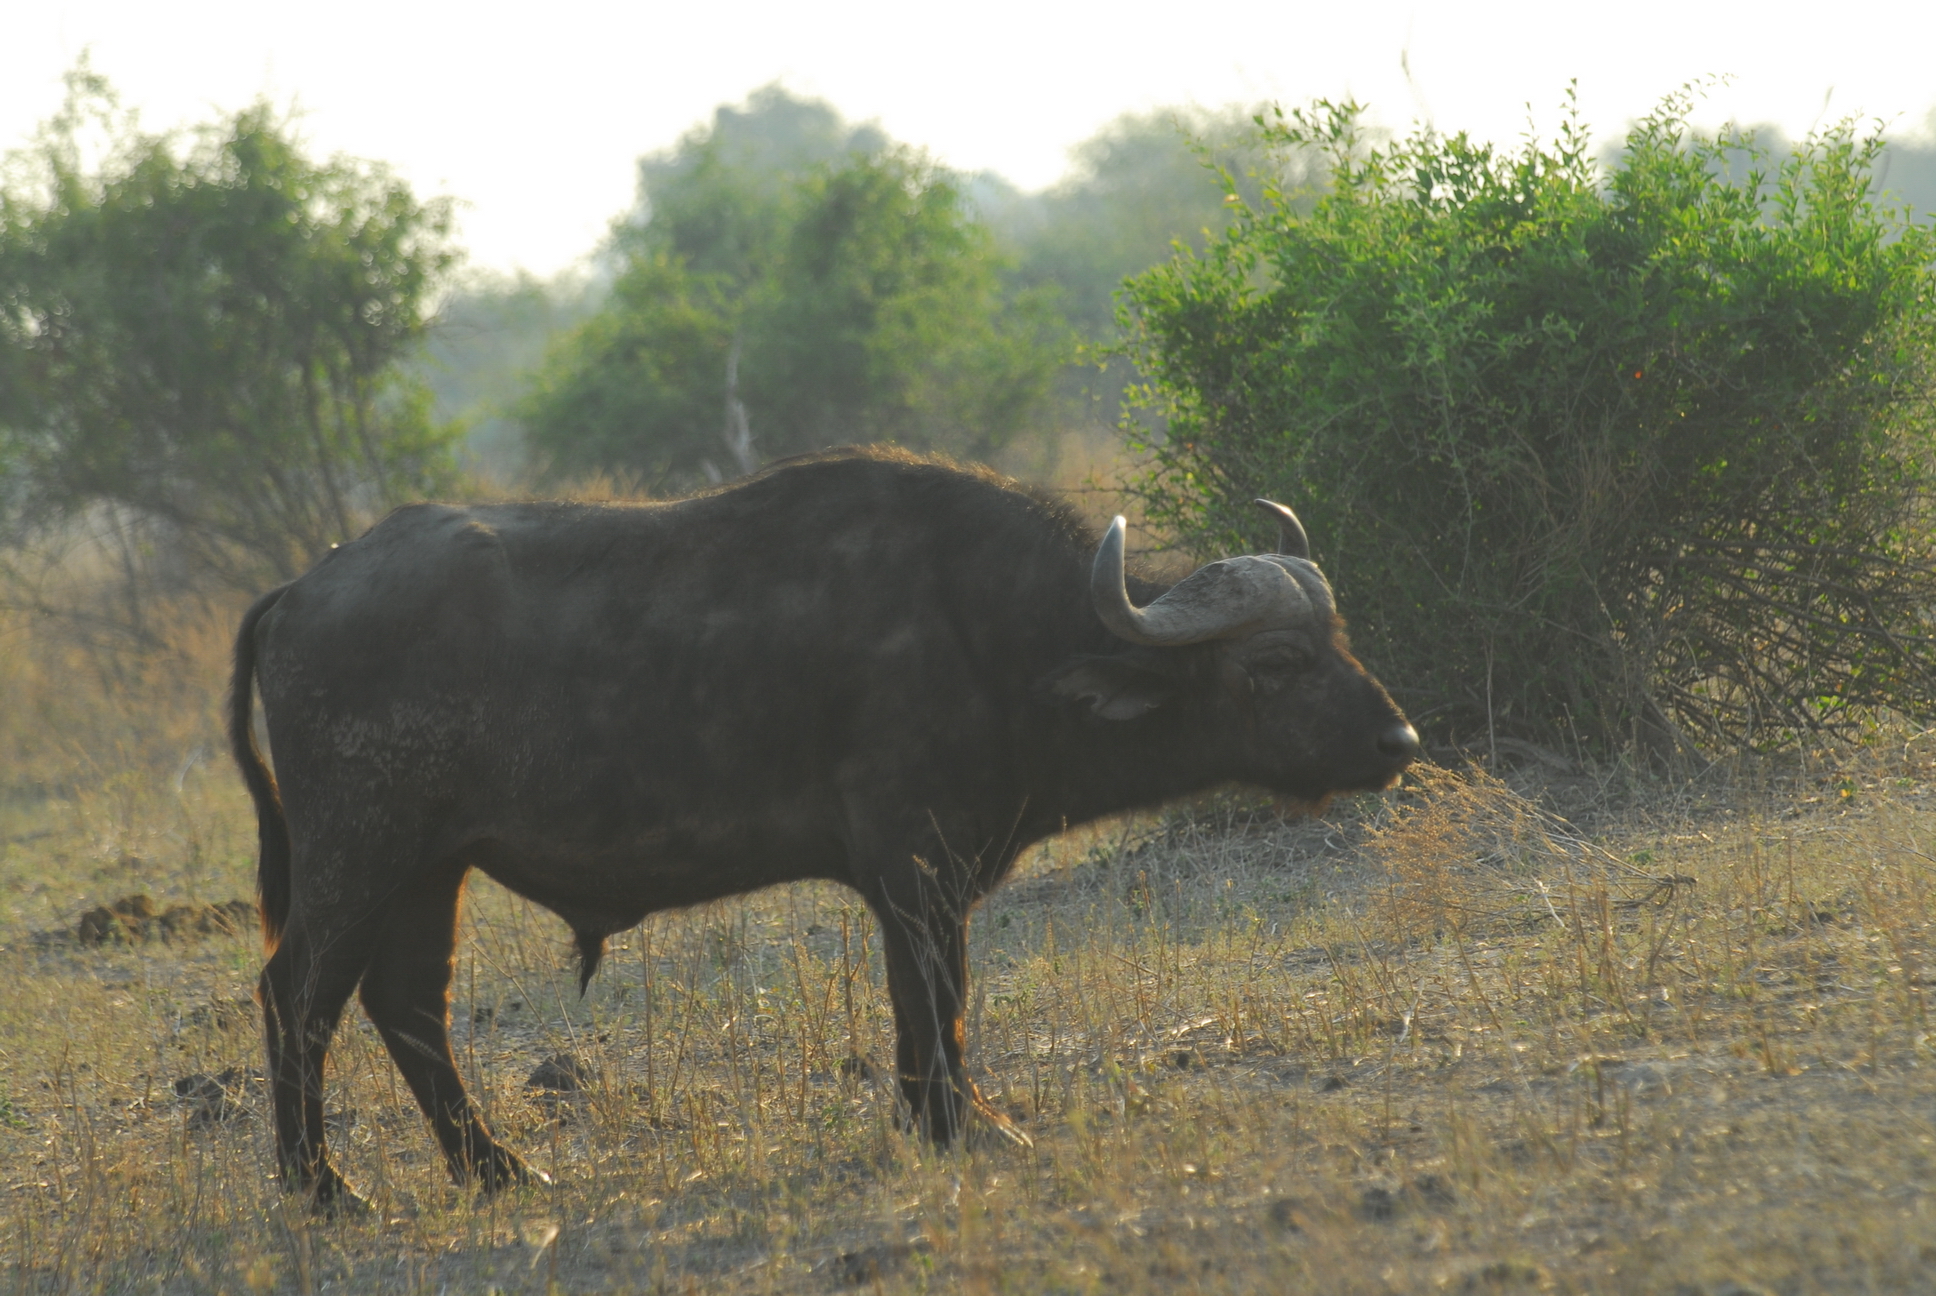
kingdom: Animalia
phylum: Chordata
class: Mammalia
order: Artiodactyla
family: Bovidae
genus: Syncerus
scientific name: Syncerus caffer
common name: African buffalo
